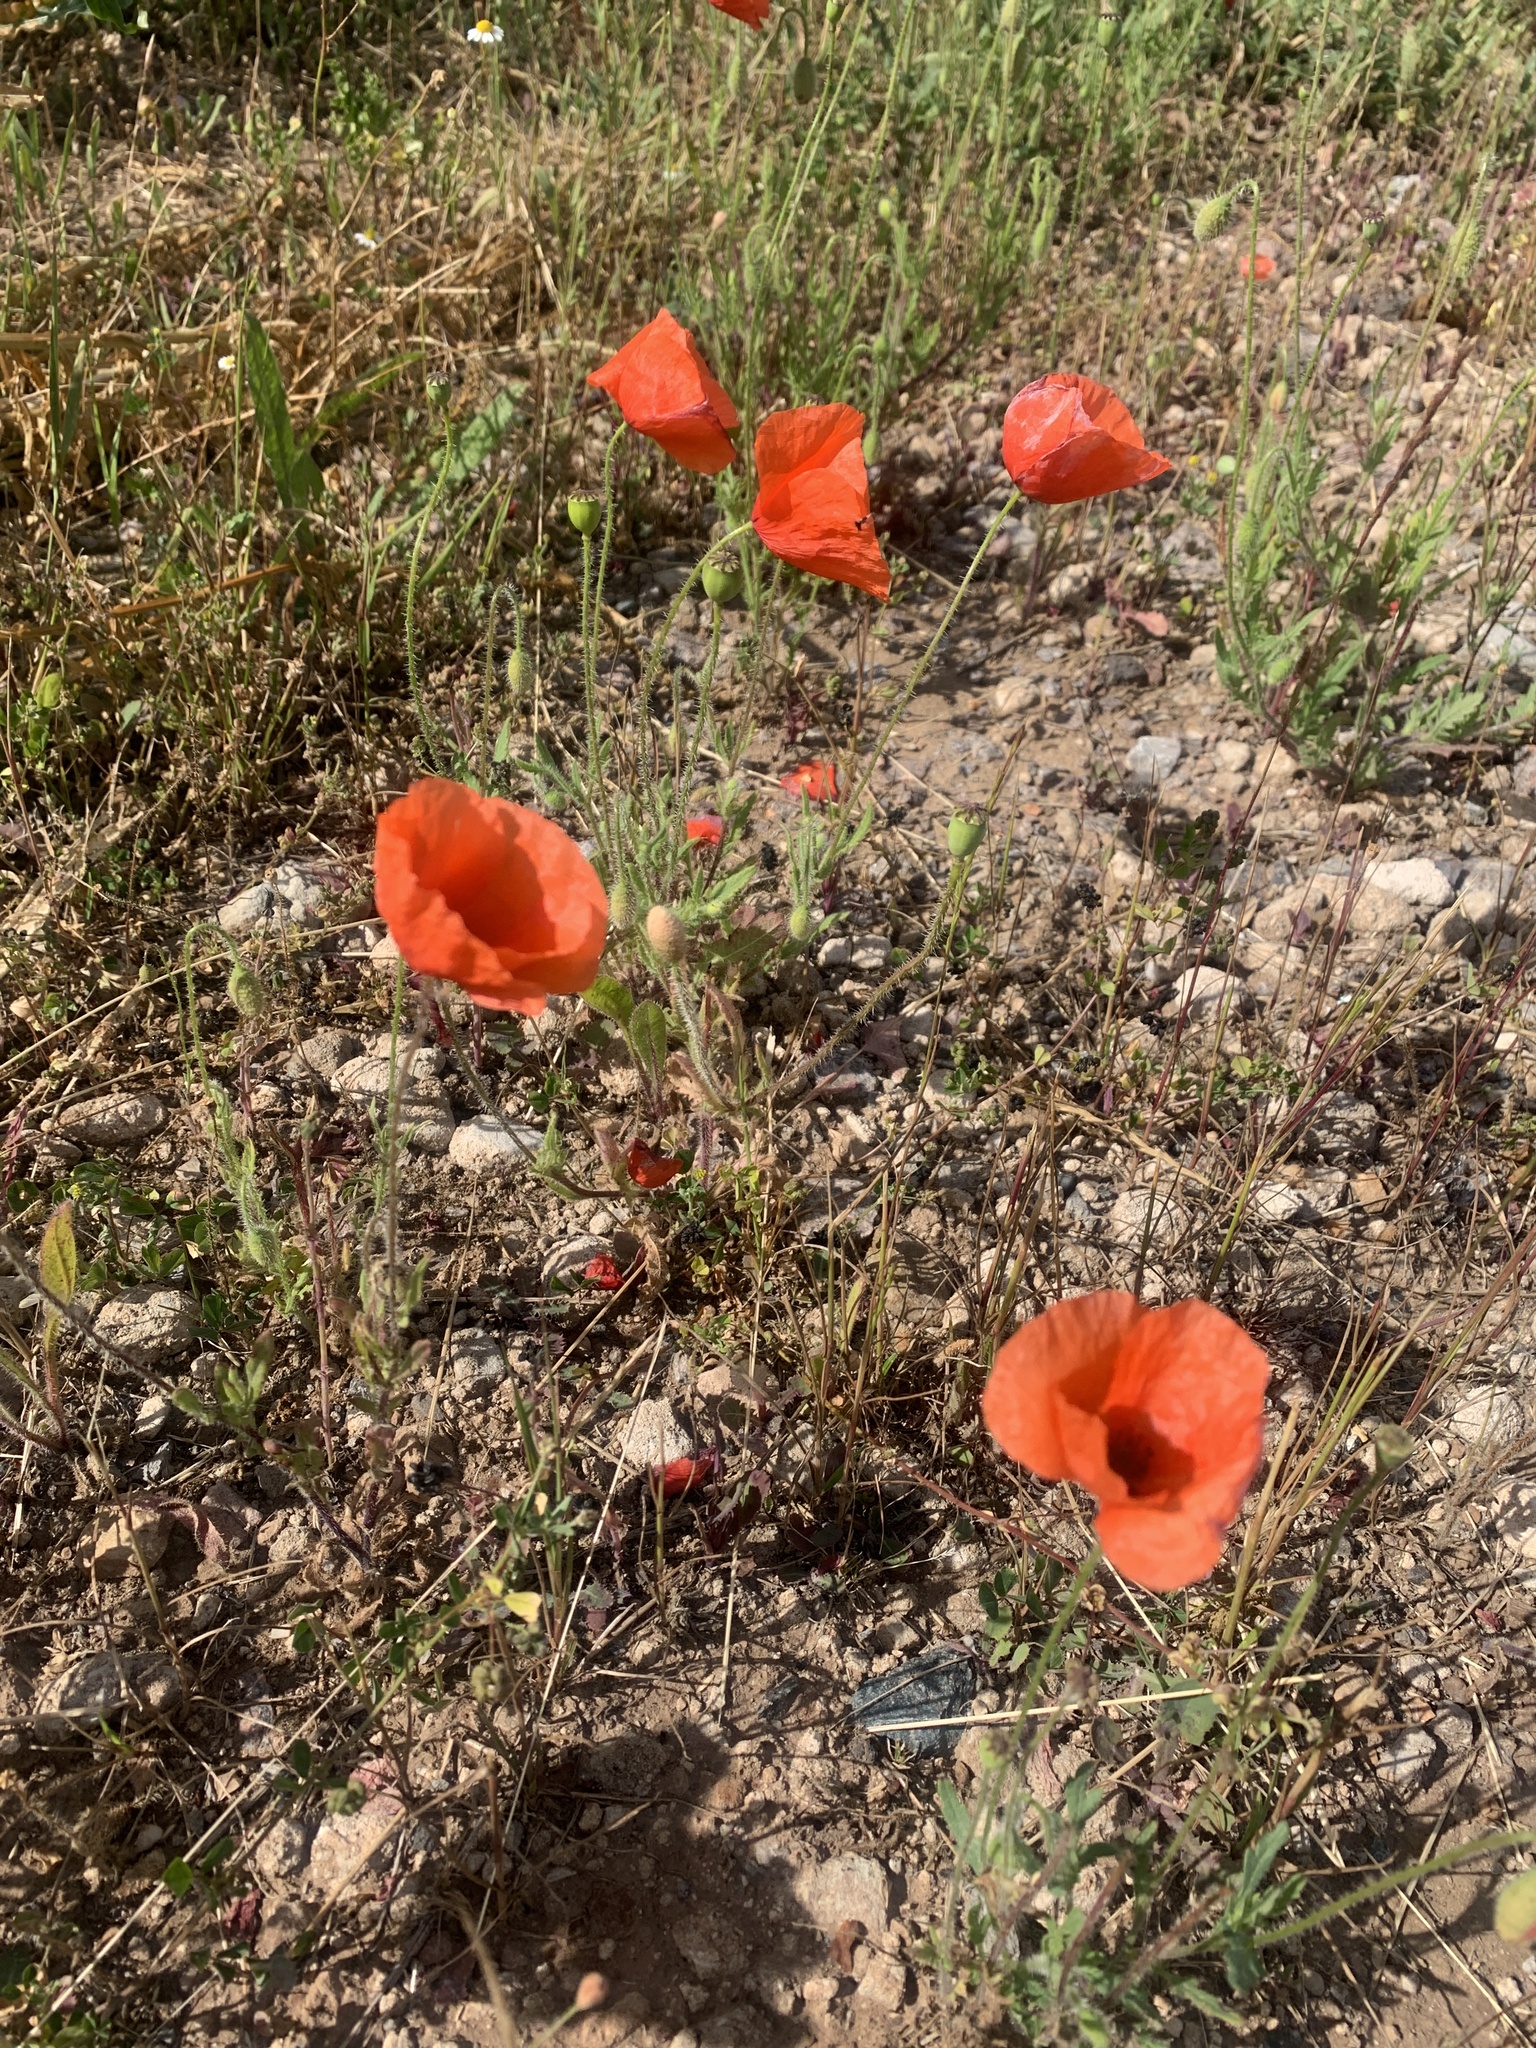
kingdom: Plantae
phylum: Tracheophyta
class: Magnoliopsida
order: Ranunculales
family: Papaveraceae
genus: Papaver
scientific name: Papaver rhoeas
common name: Corn poppy
